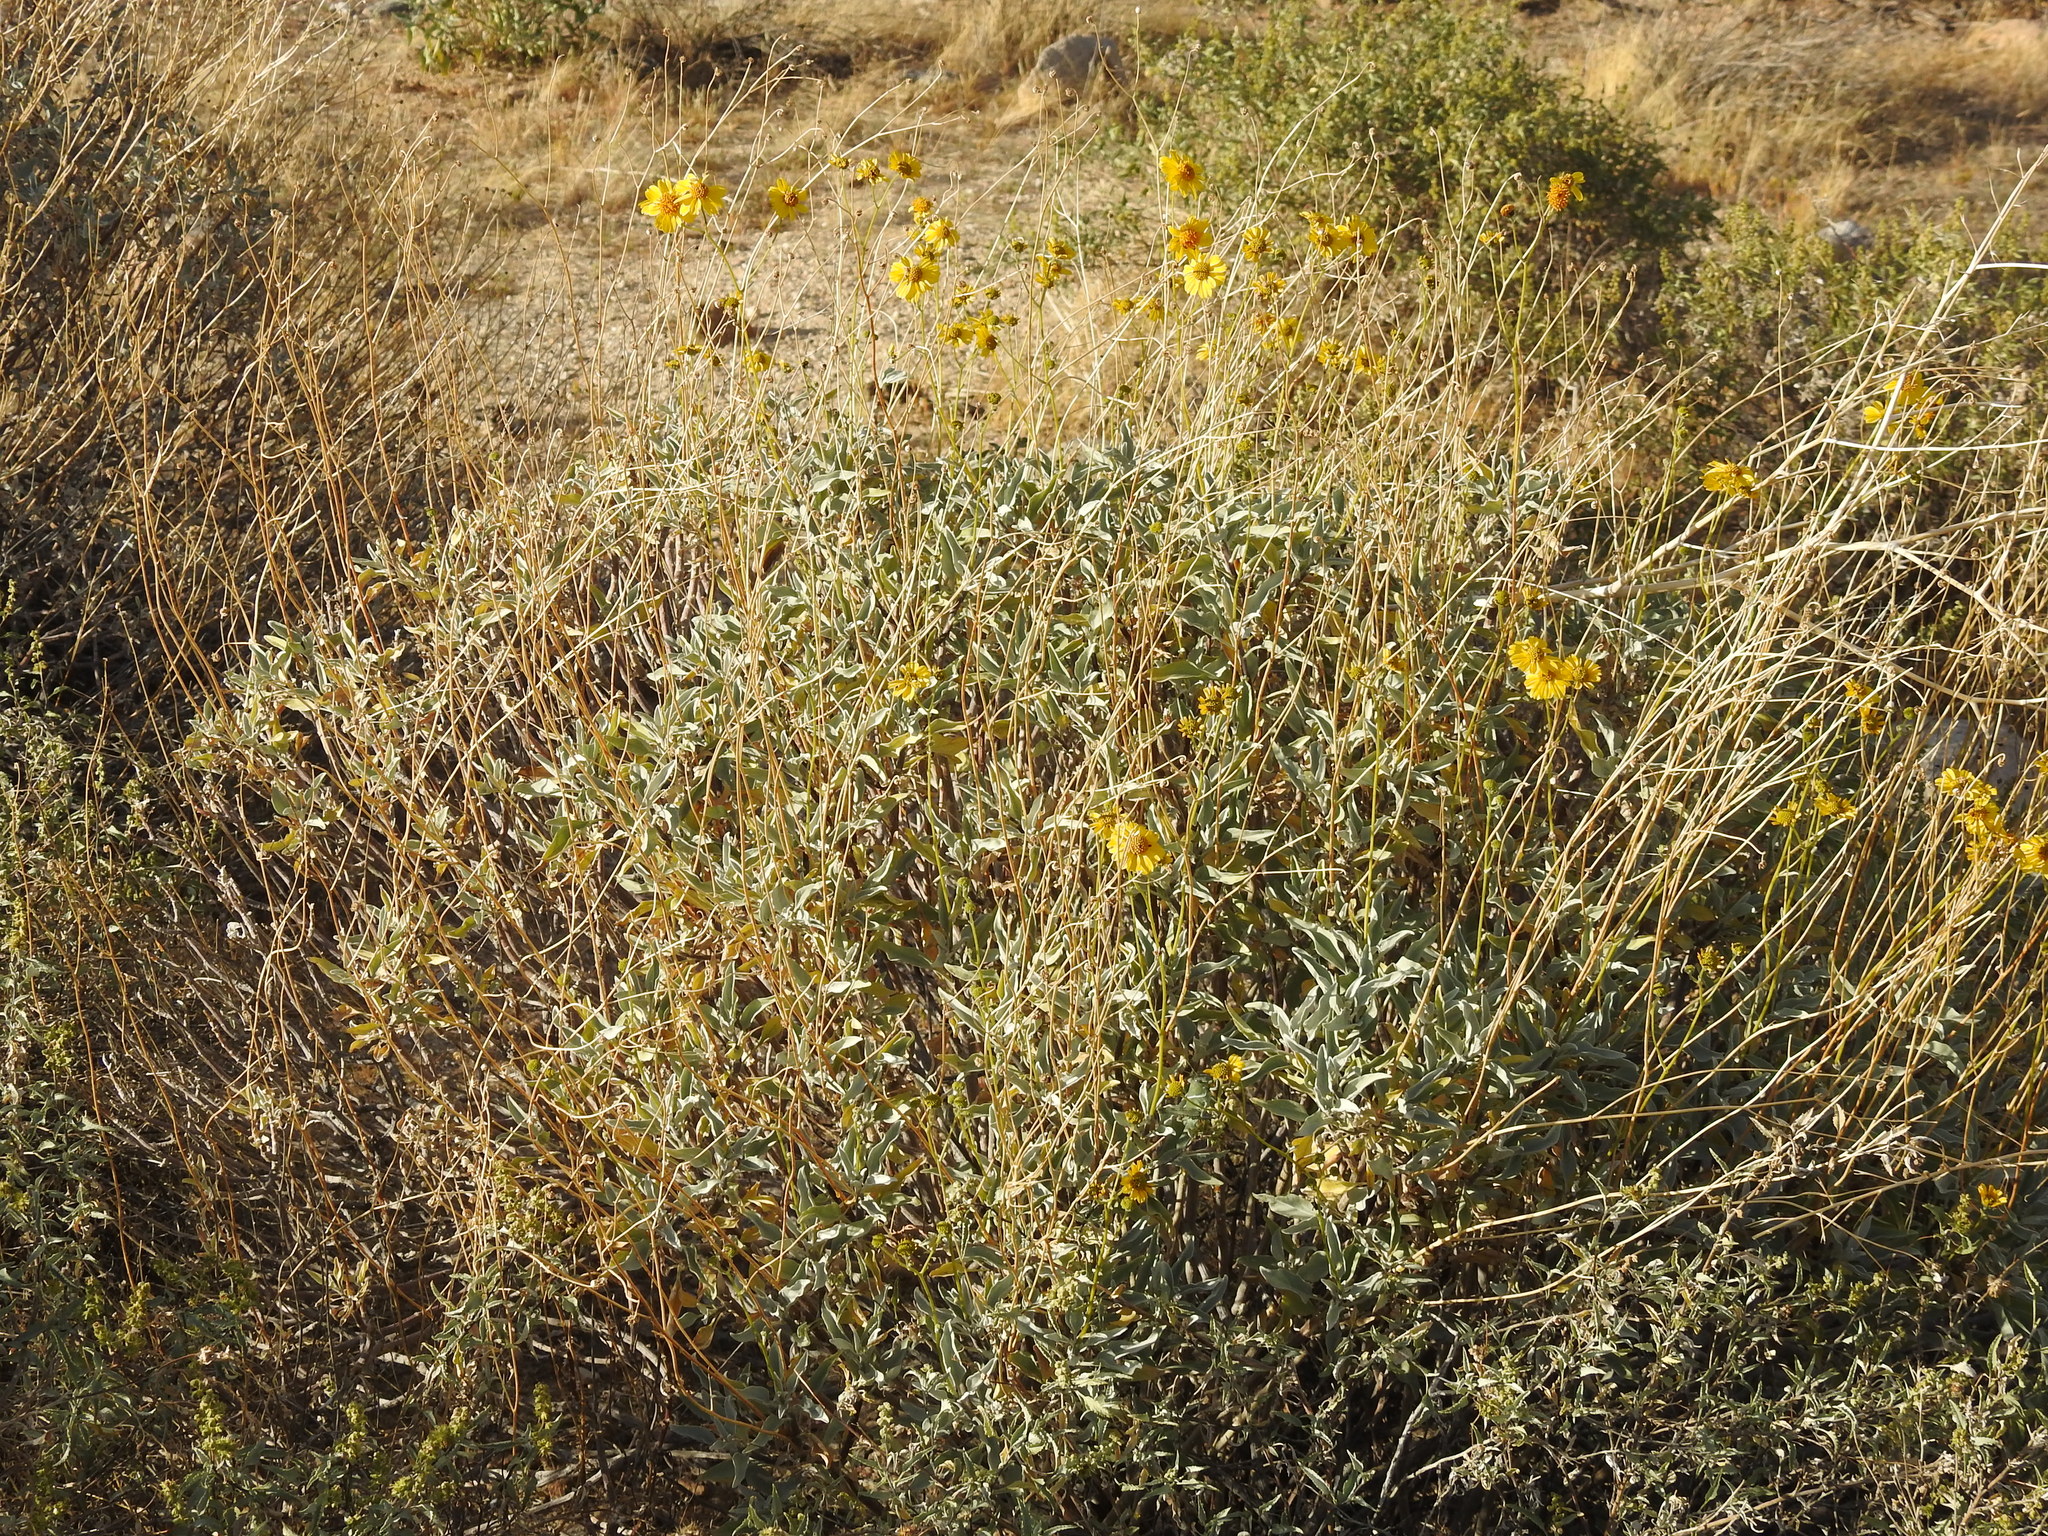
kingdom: Plantae
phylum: Tracheophyta
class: Magnoliopsida
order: Asterales
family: Asteraceae
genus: Encelia
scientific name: Encelia farinosa
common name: Brittlebush
